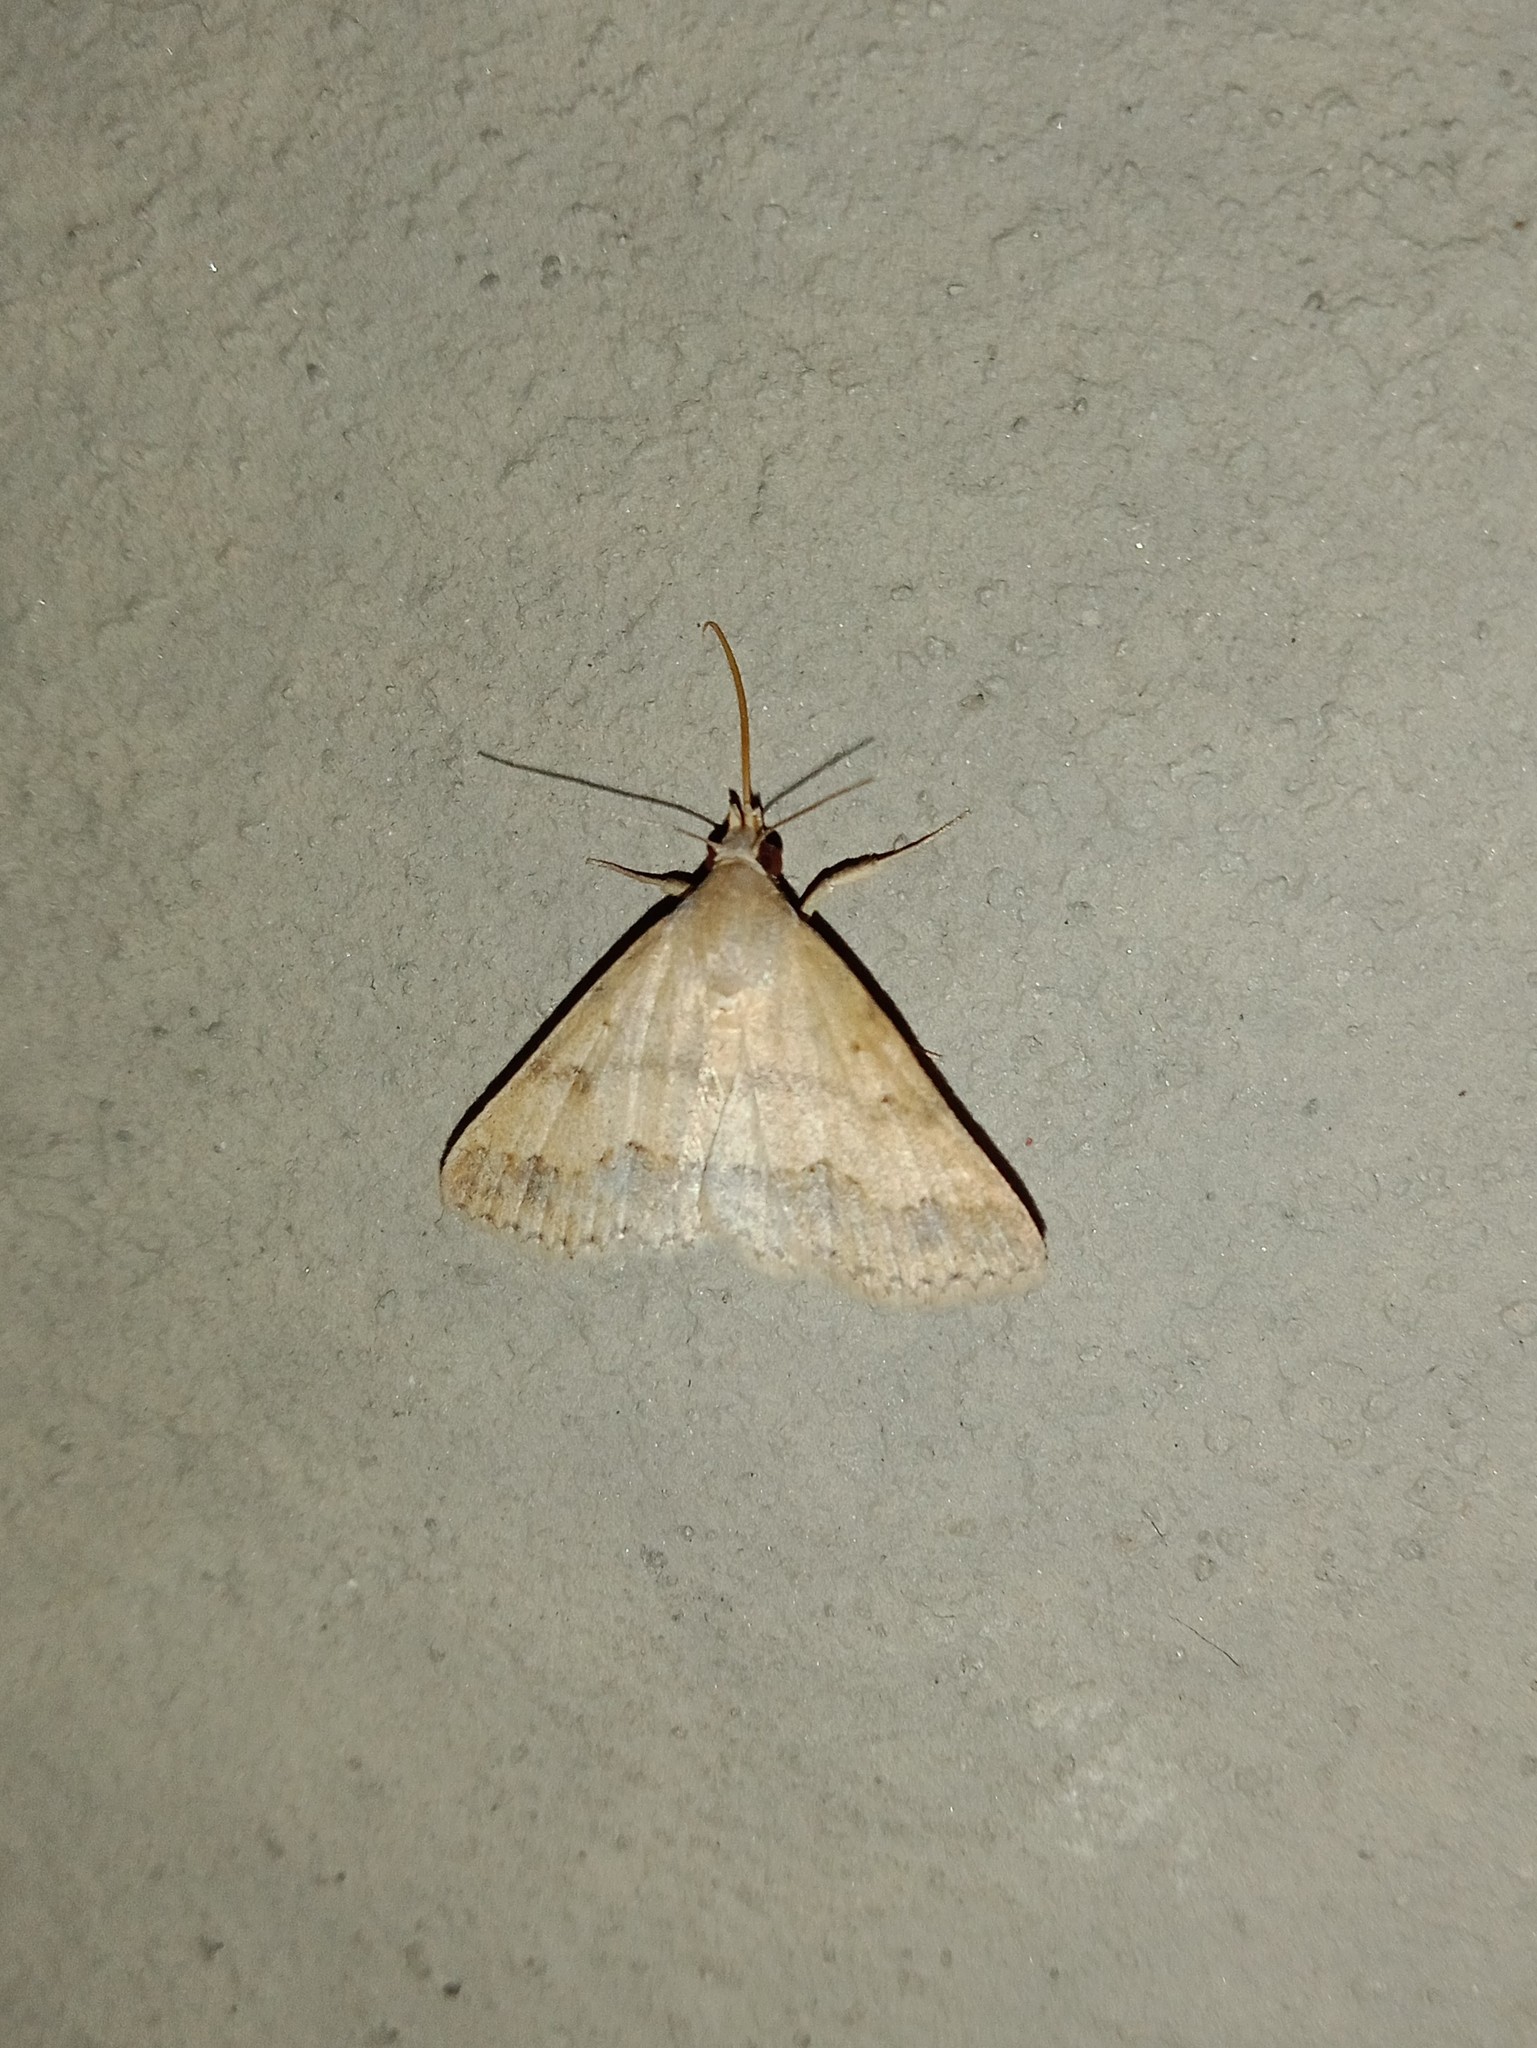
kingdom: Animalia
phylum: Arthropoda
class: Insecta
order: Lepidoptera
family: Erebidae
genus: Gesonia
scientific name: Gesonia obeditalis
